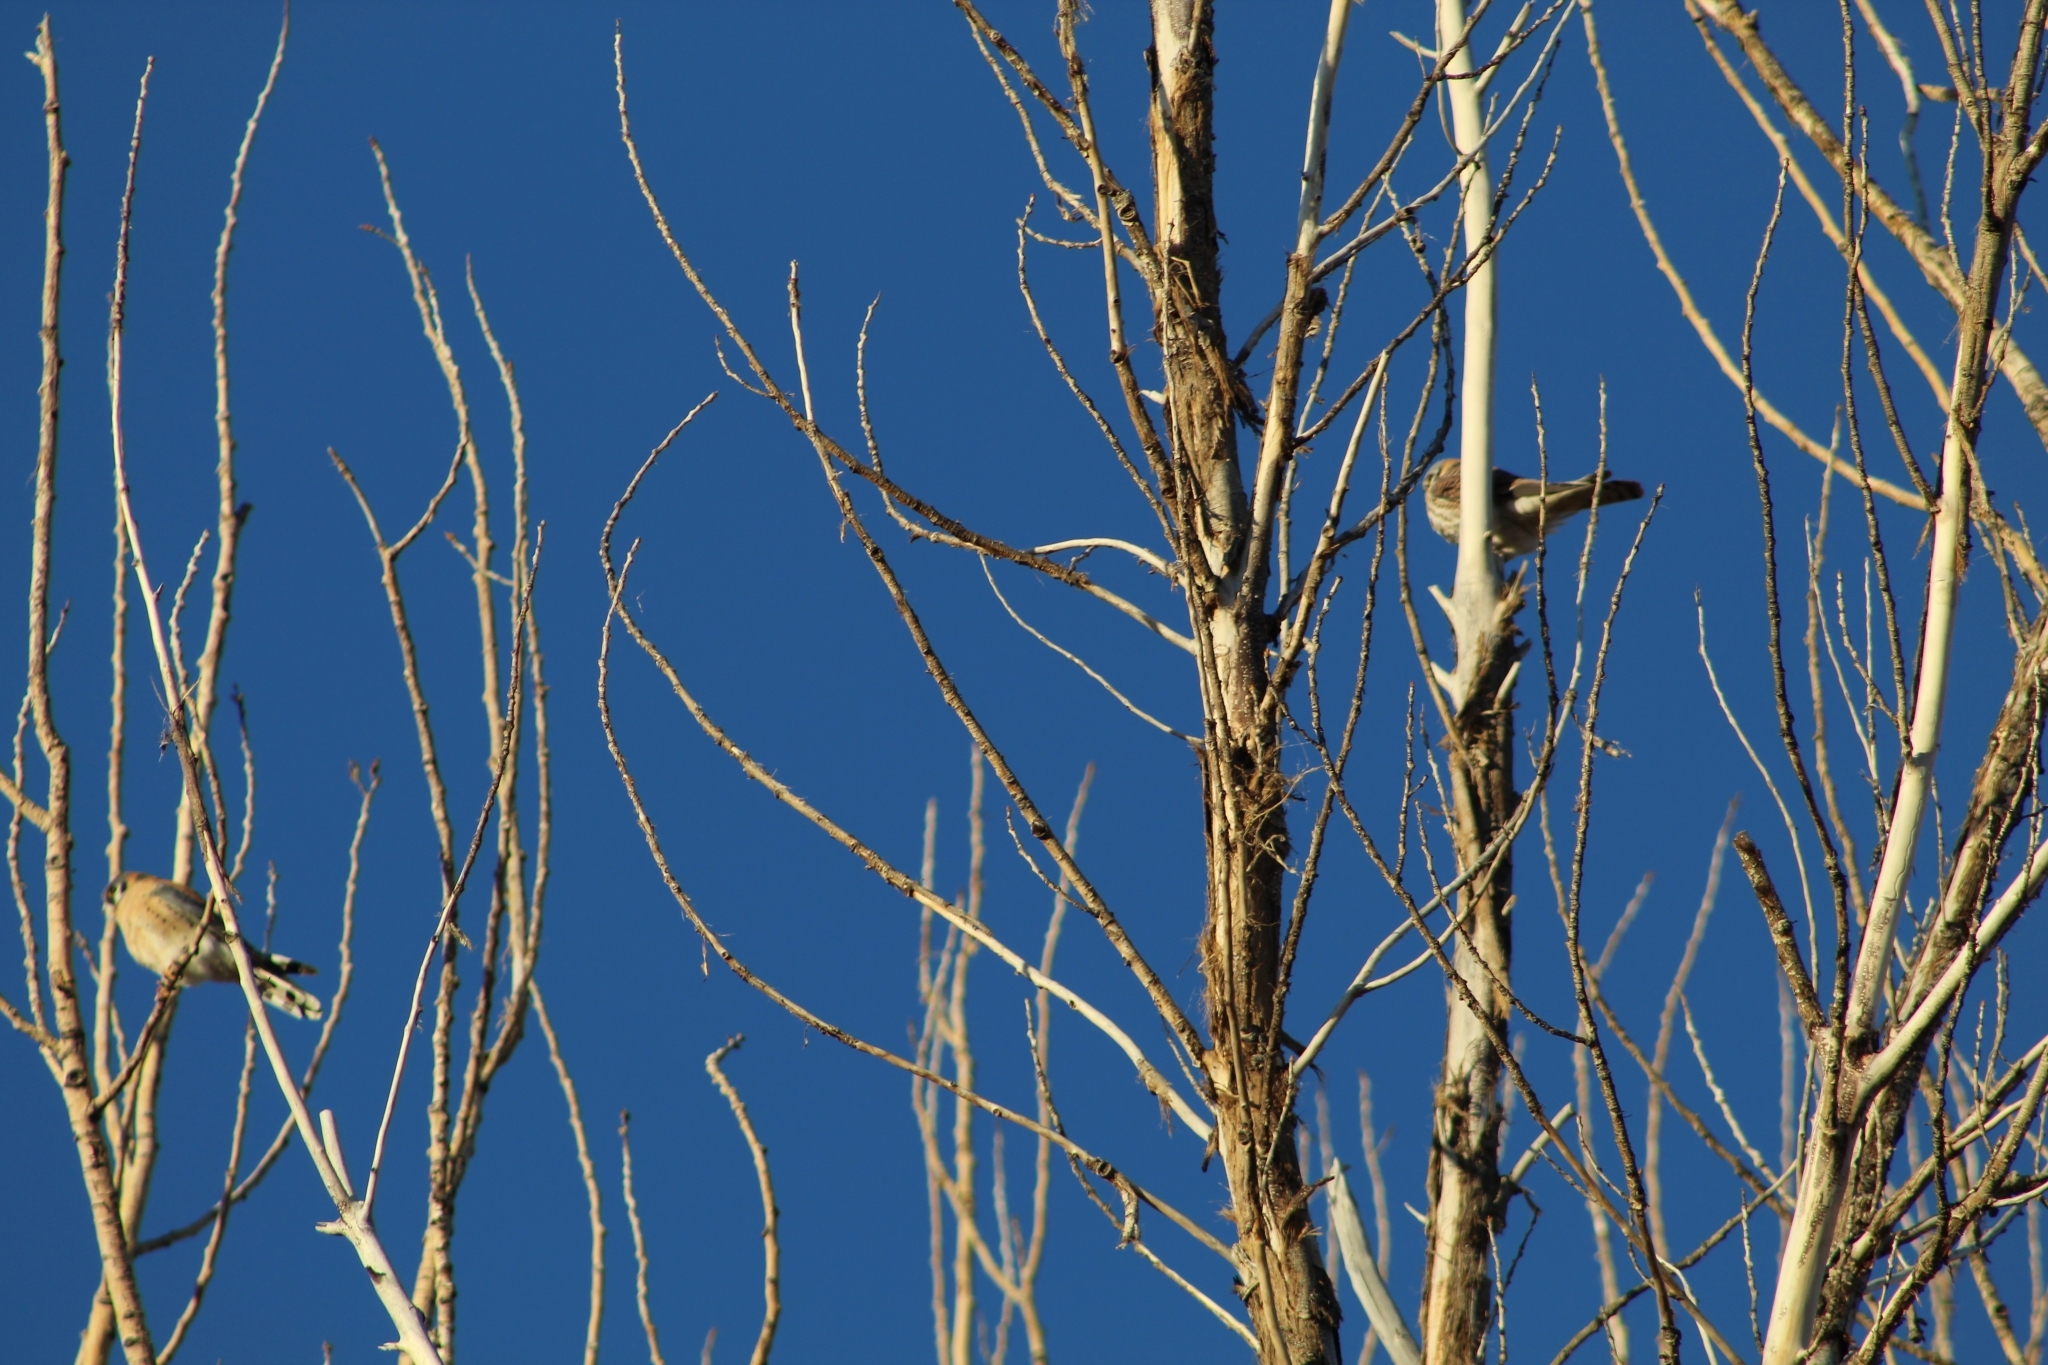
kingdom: Animalia
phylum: Chordata
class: Aves
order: Falconiformes
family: Falconidae
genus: Falco
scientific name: Falco sparverius
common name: American kestrel
